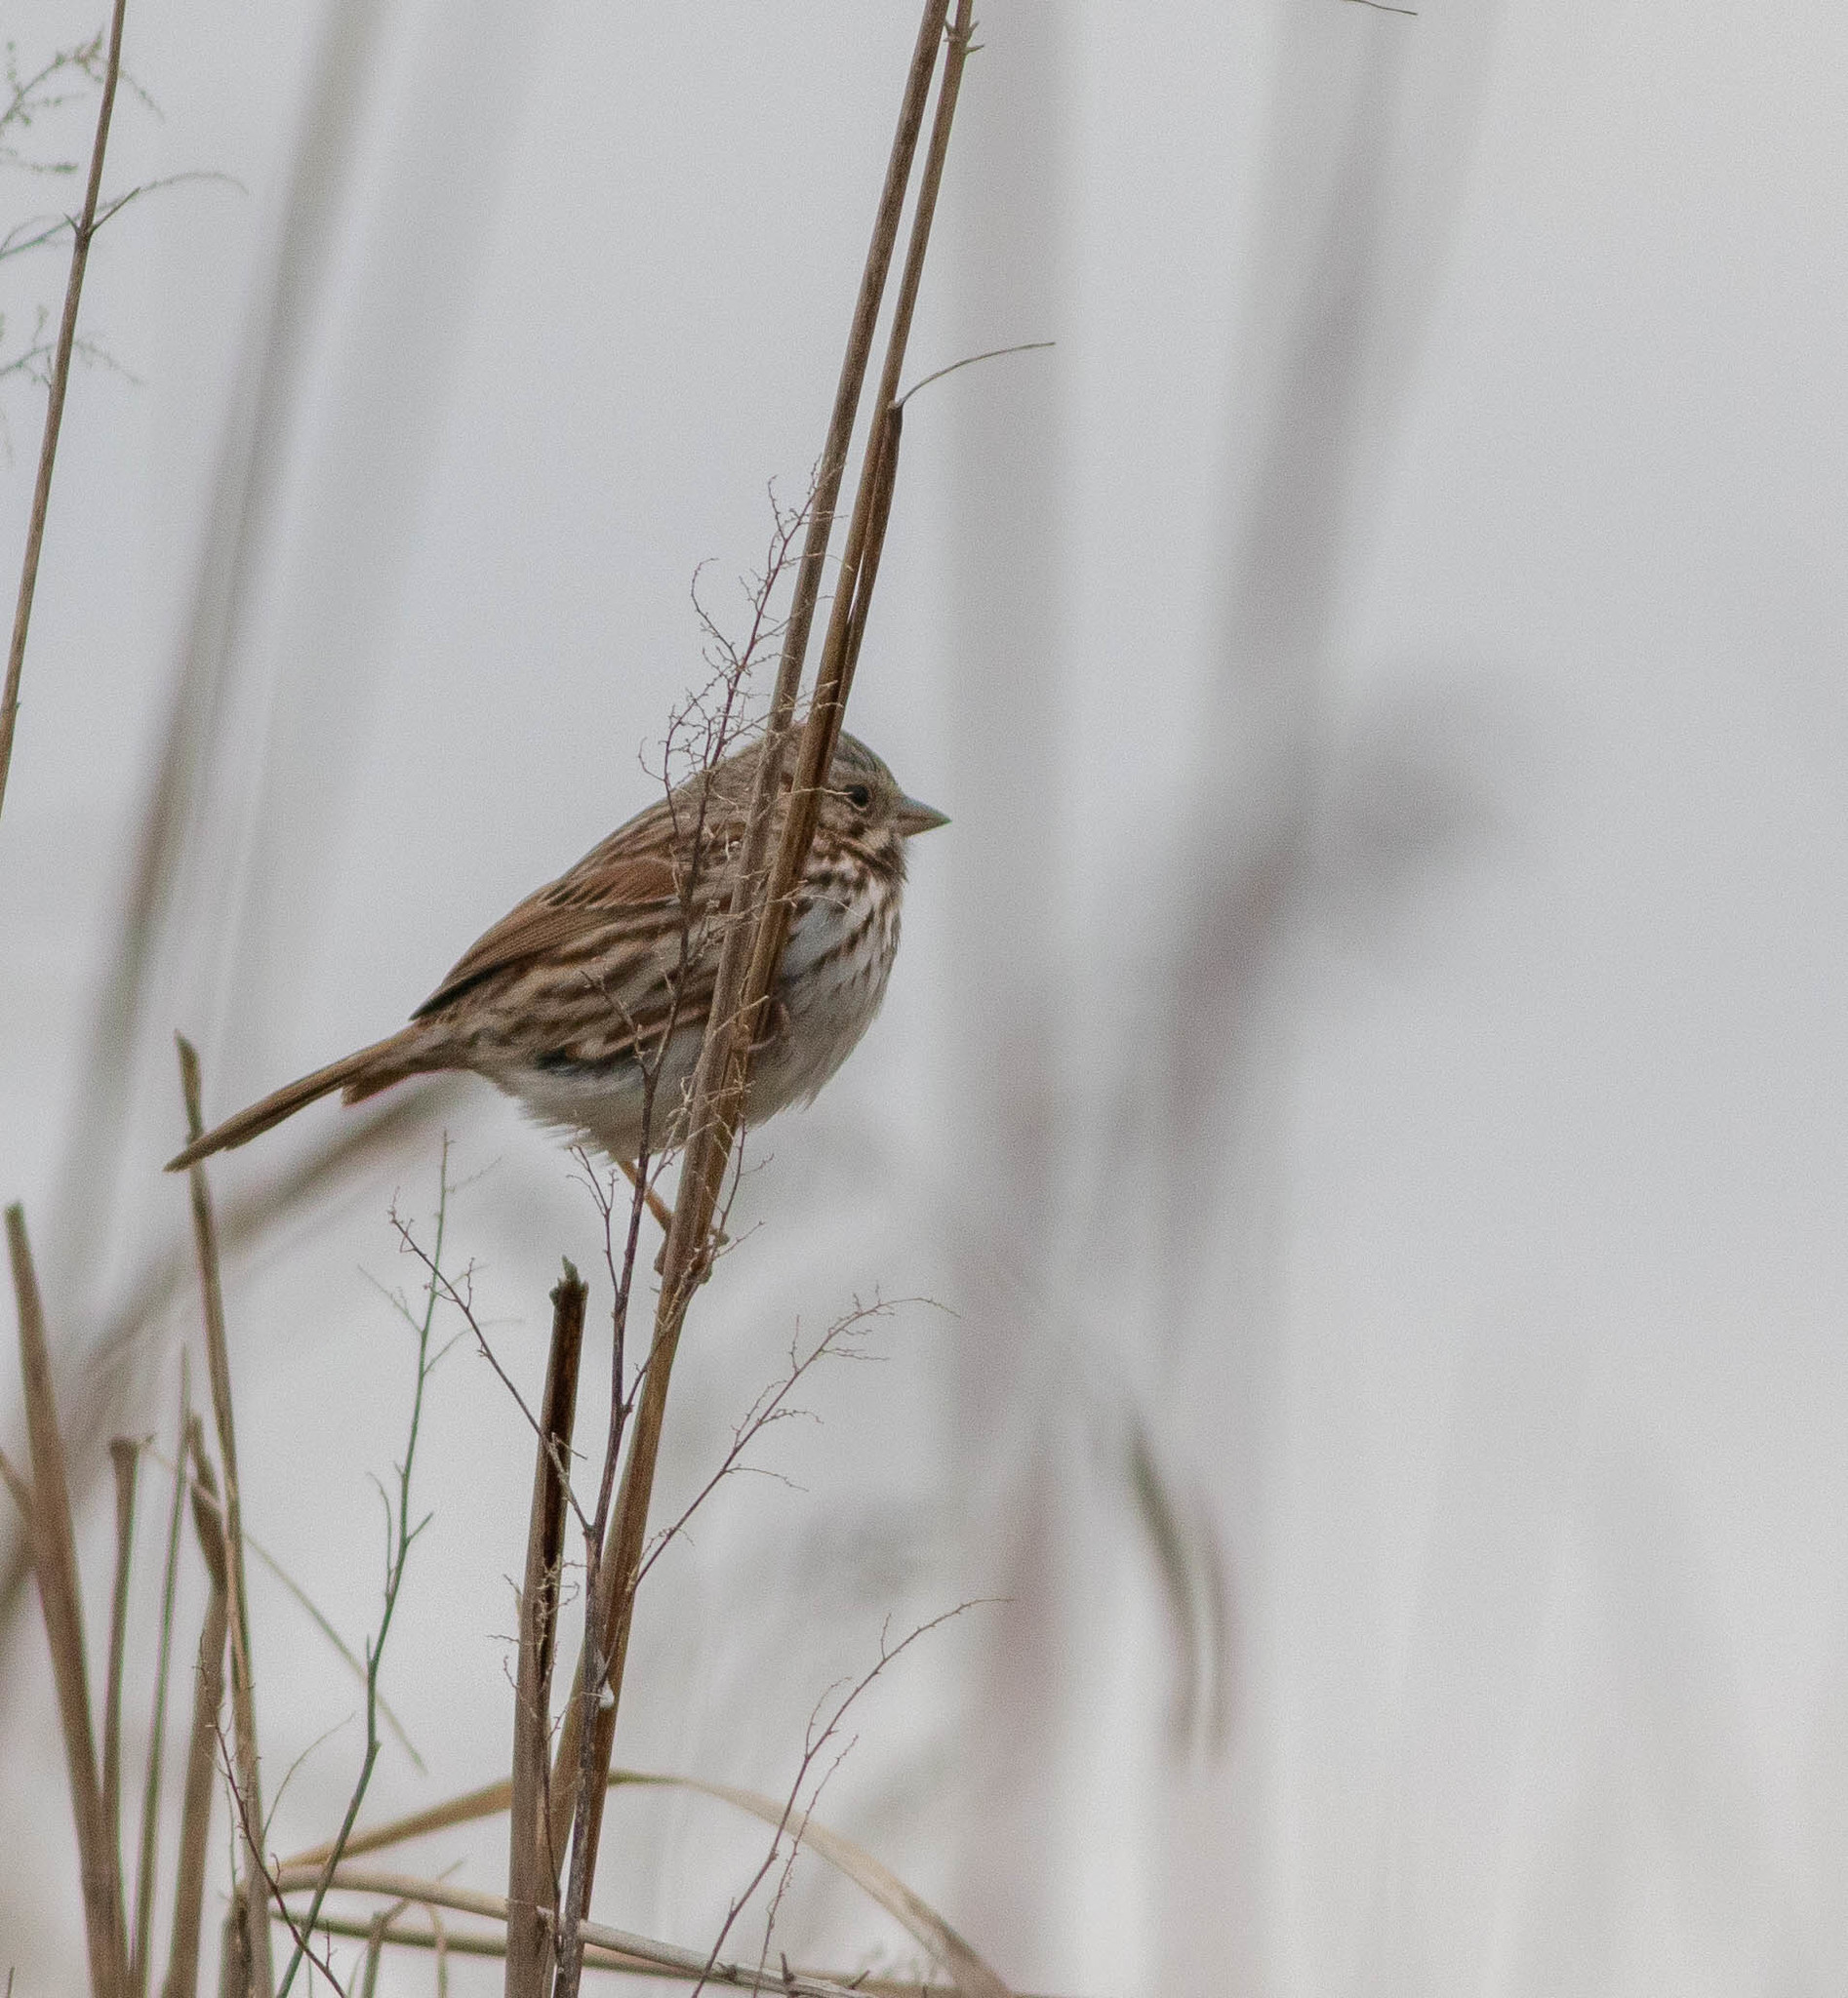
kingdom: Animalia
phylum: Chordata
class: Aves
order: Passeriformes
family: Passerellidae
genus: Melospiza
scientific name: Melospiza melodia
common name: Song sparrow
